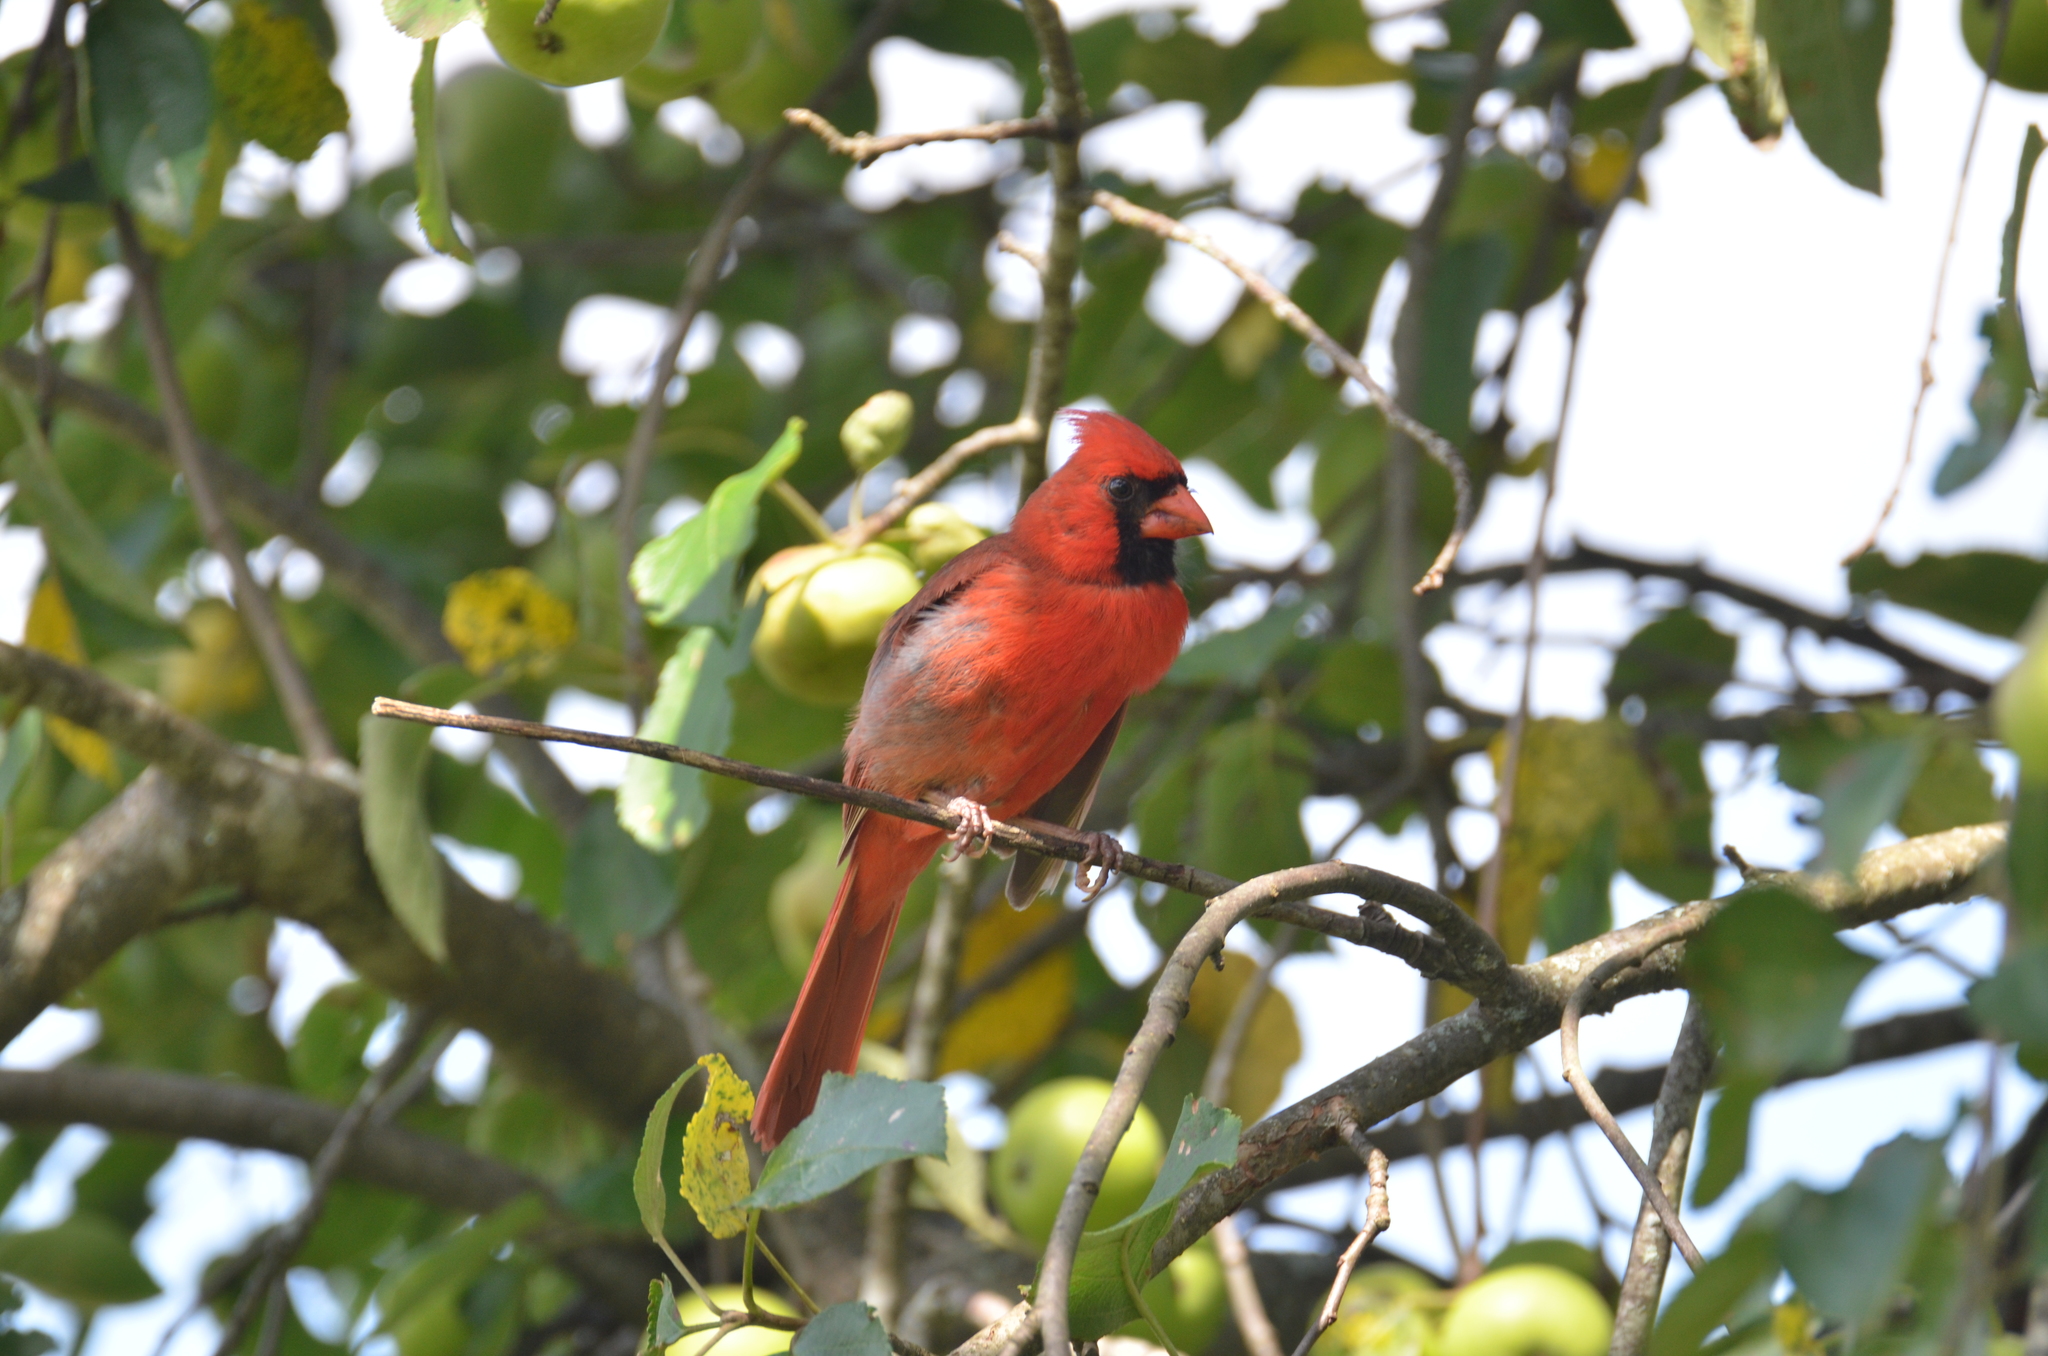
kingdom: Animalia
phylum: Chordata
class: Aves
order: Passeriformes
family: Cardinalidae
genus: Cardinalis
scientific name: Cardinalis cardinalis
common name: Northern cardinal
